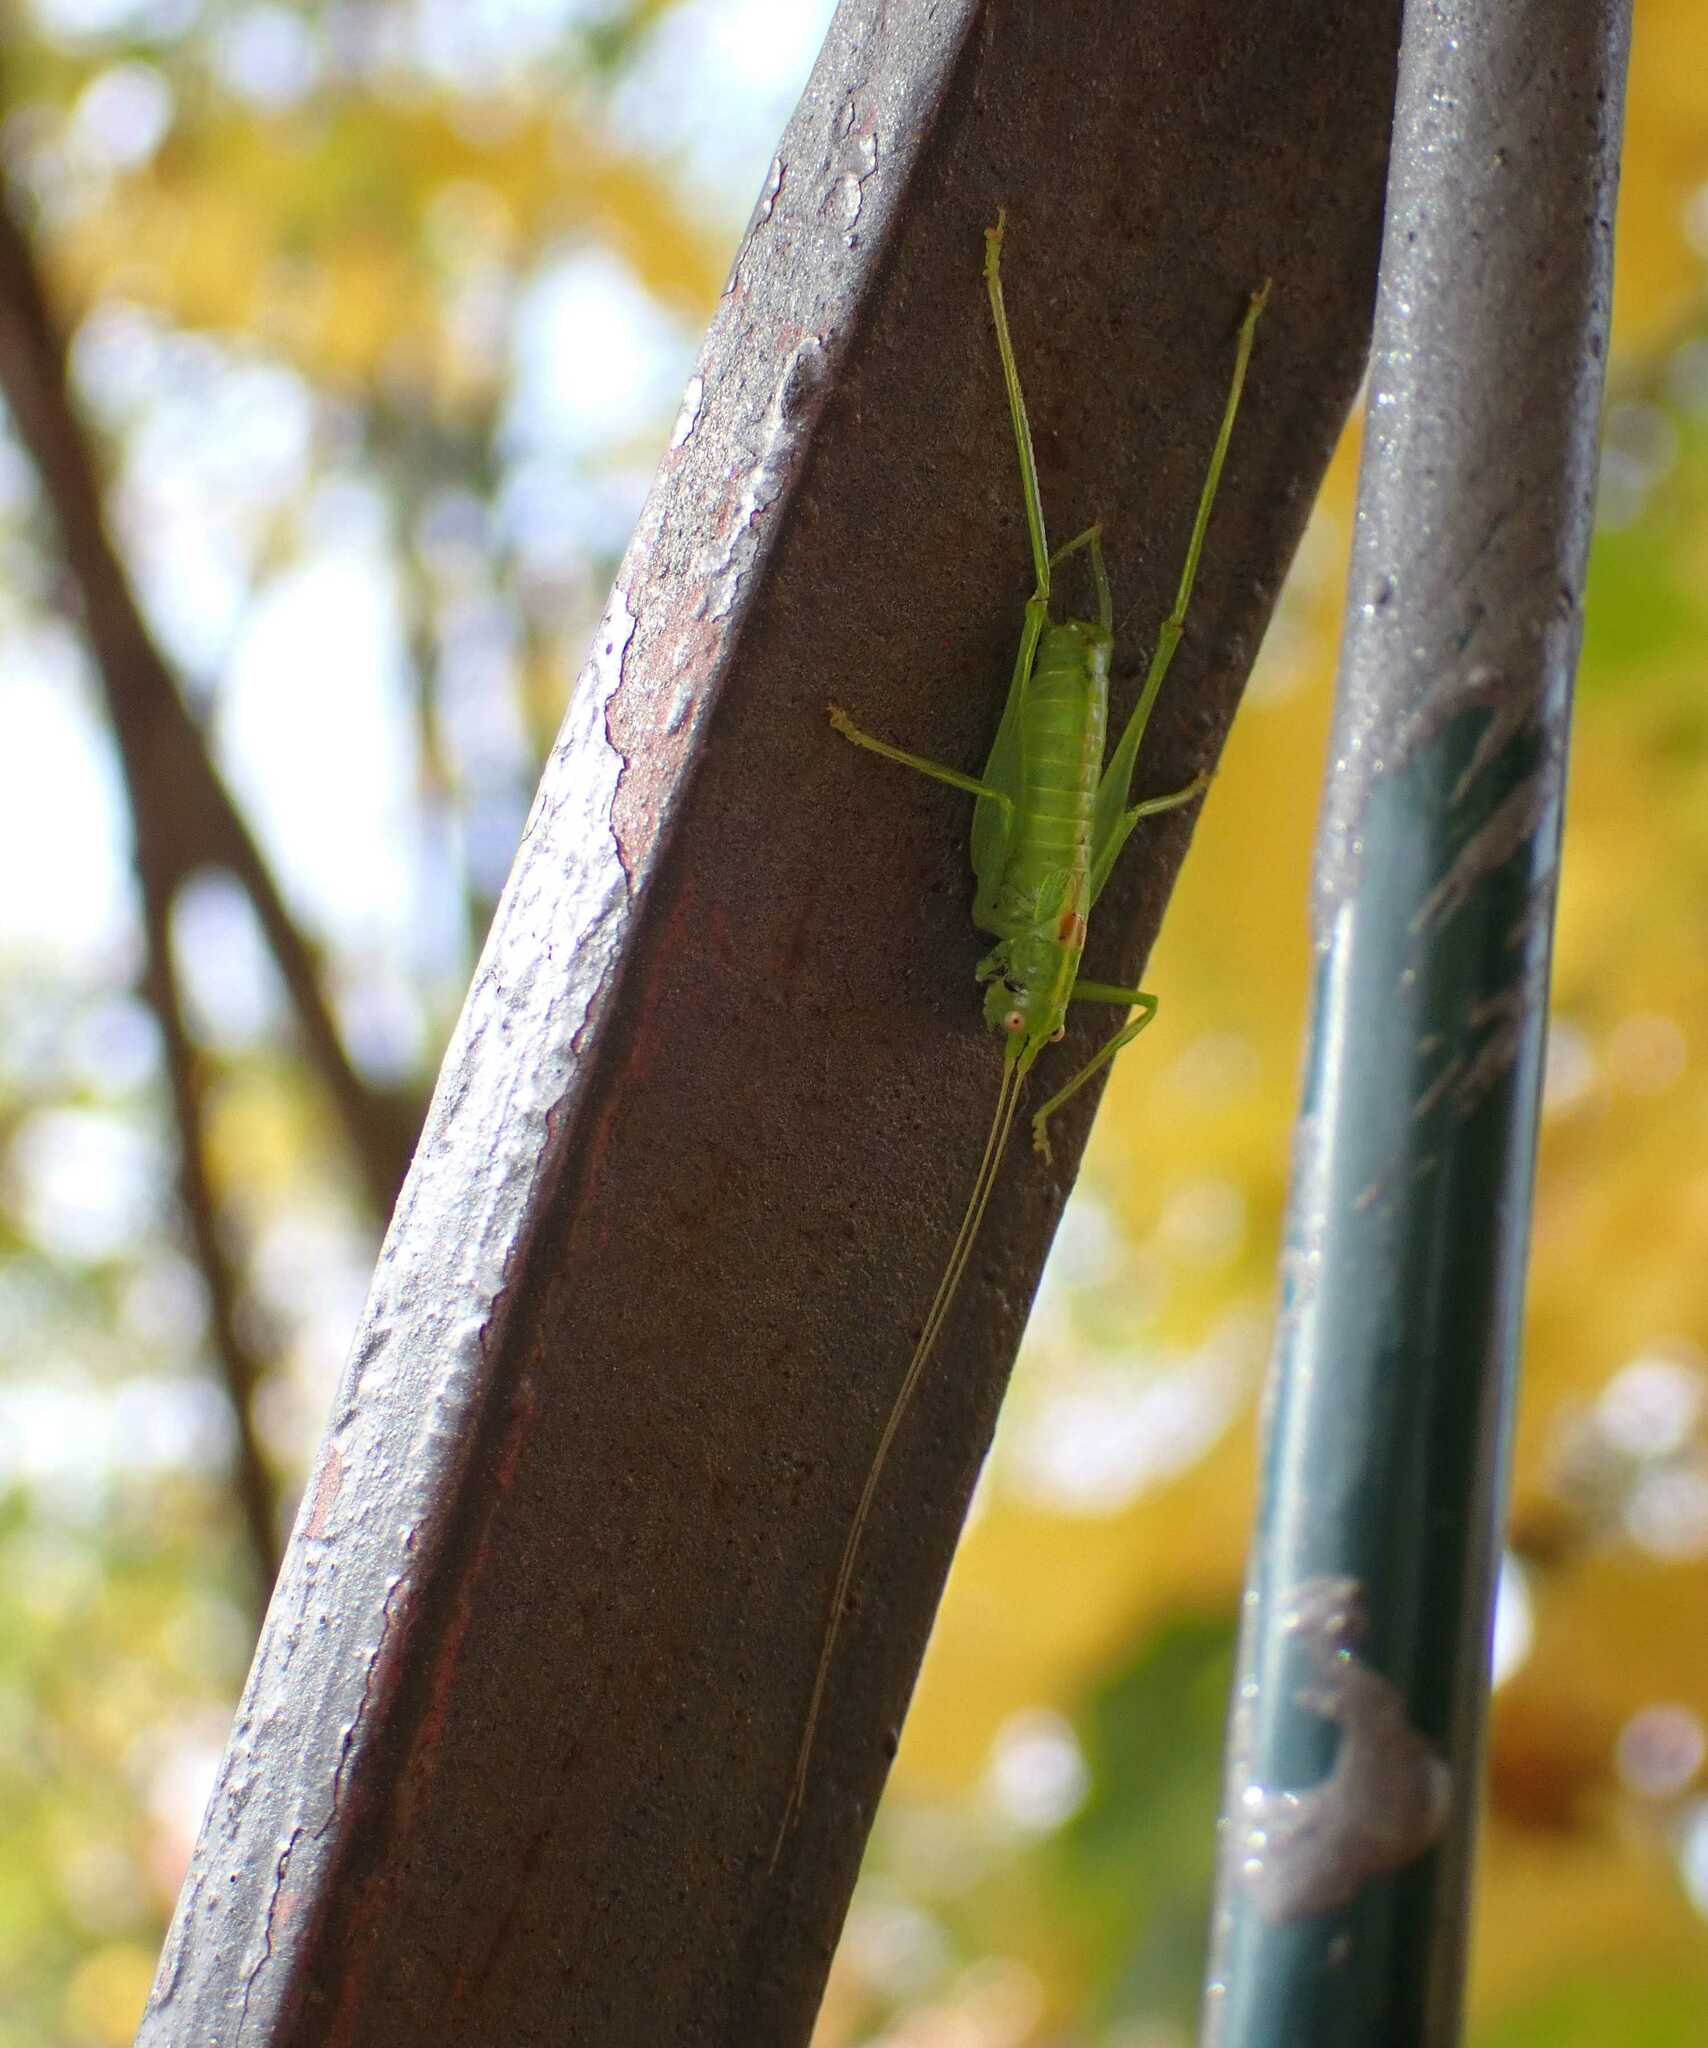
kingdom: Animalia
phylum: Arthropoda
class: Insecta
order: Orthoptera
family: Tettigoniidae
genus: Meconema
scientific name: Meconema meridionale
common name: Southern oak bush-cricket
